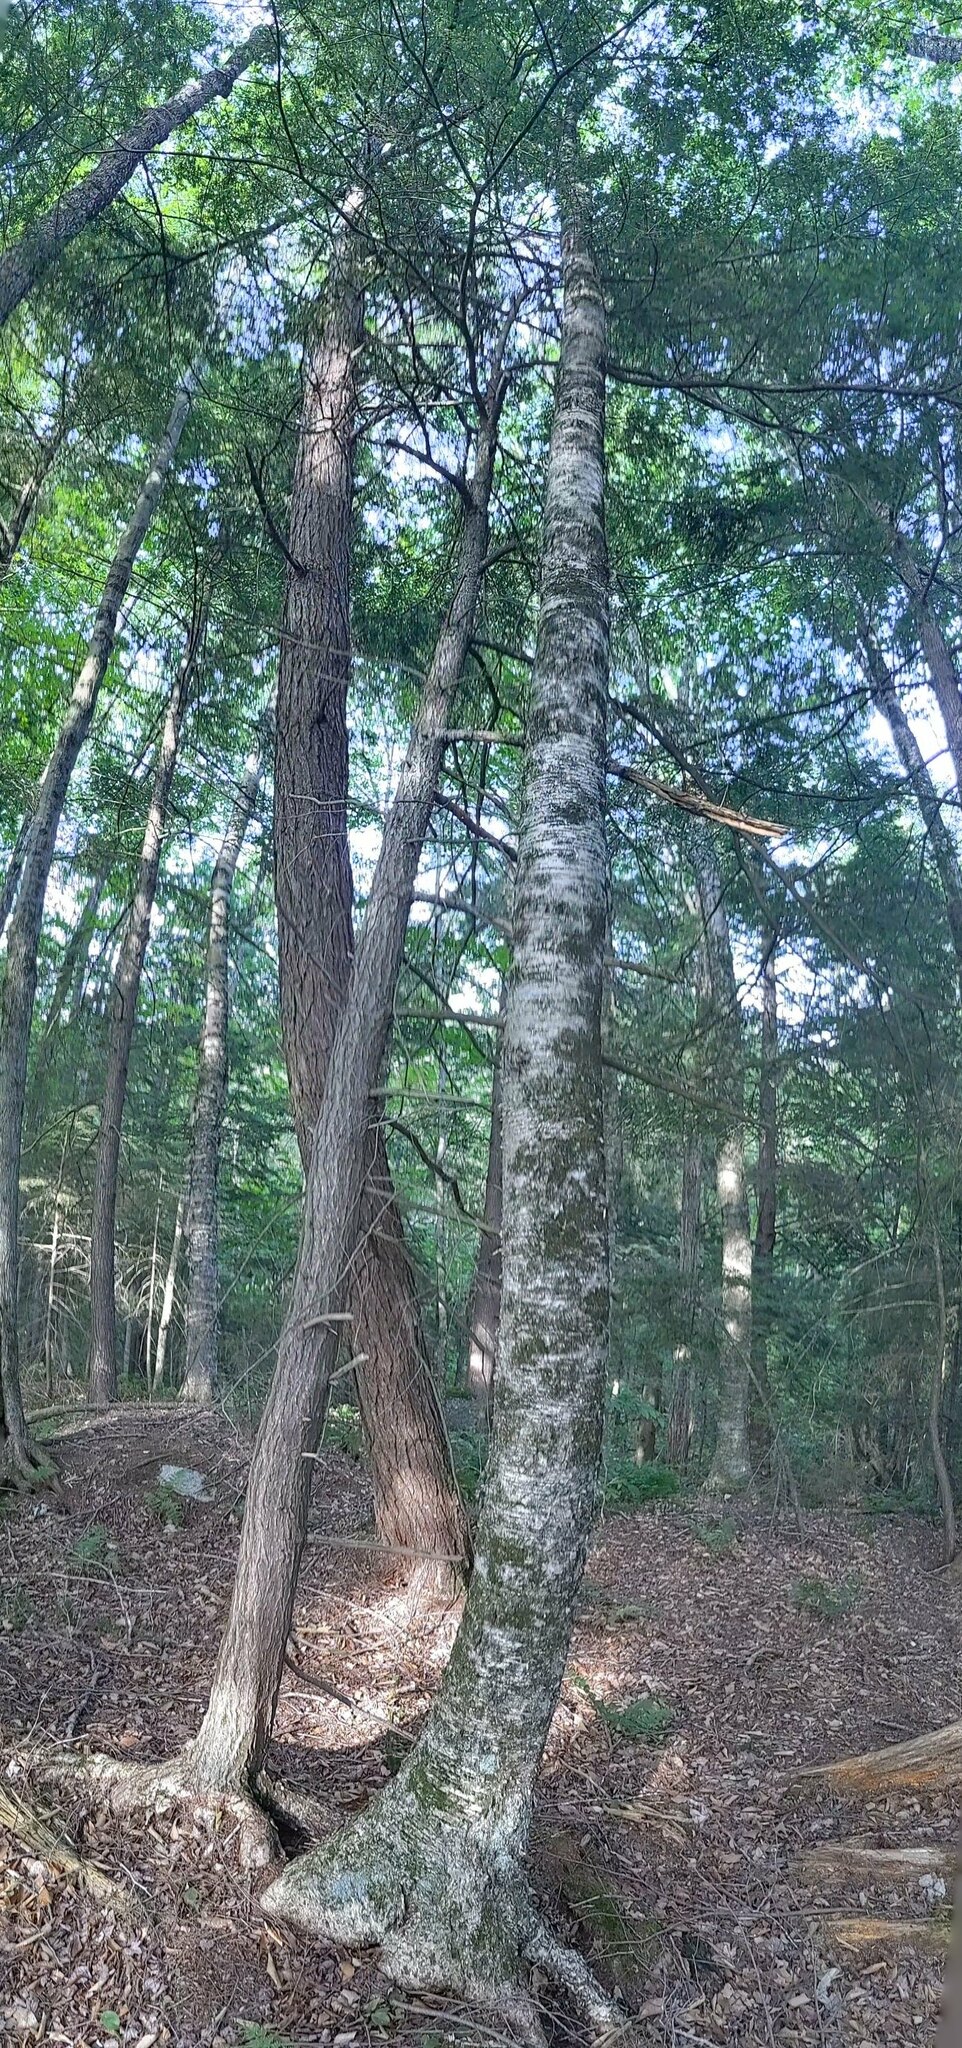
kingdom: Plantae
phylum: Tracheophyta
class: Magnoliopsida
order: Fagales
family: Betulaceae
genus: Betula
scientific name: Betula alleghaniensis
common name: Yellow birch
